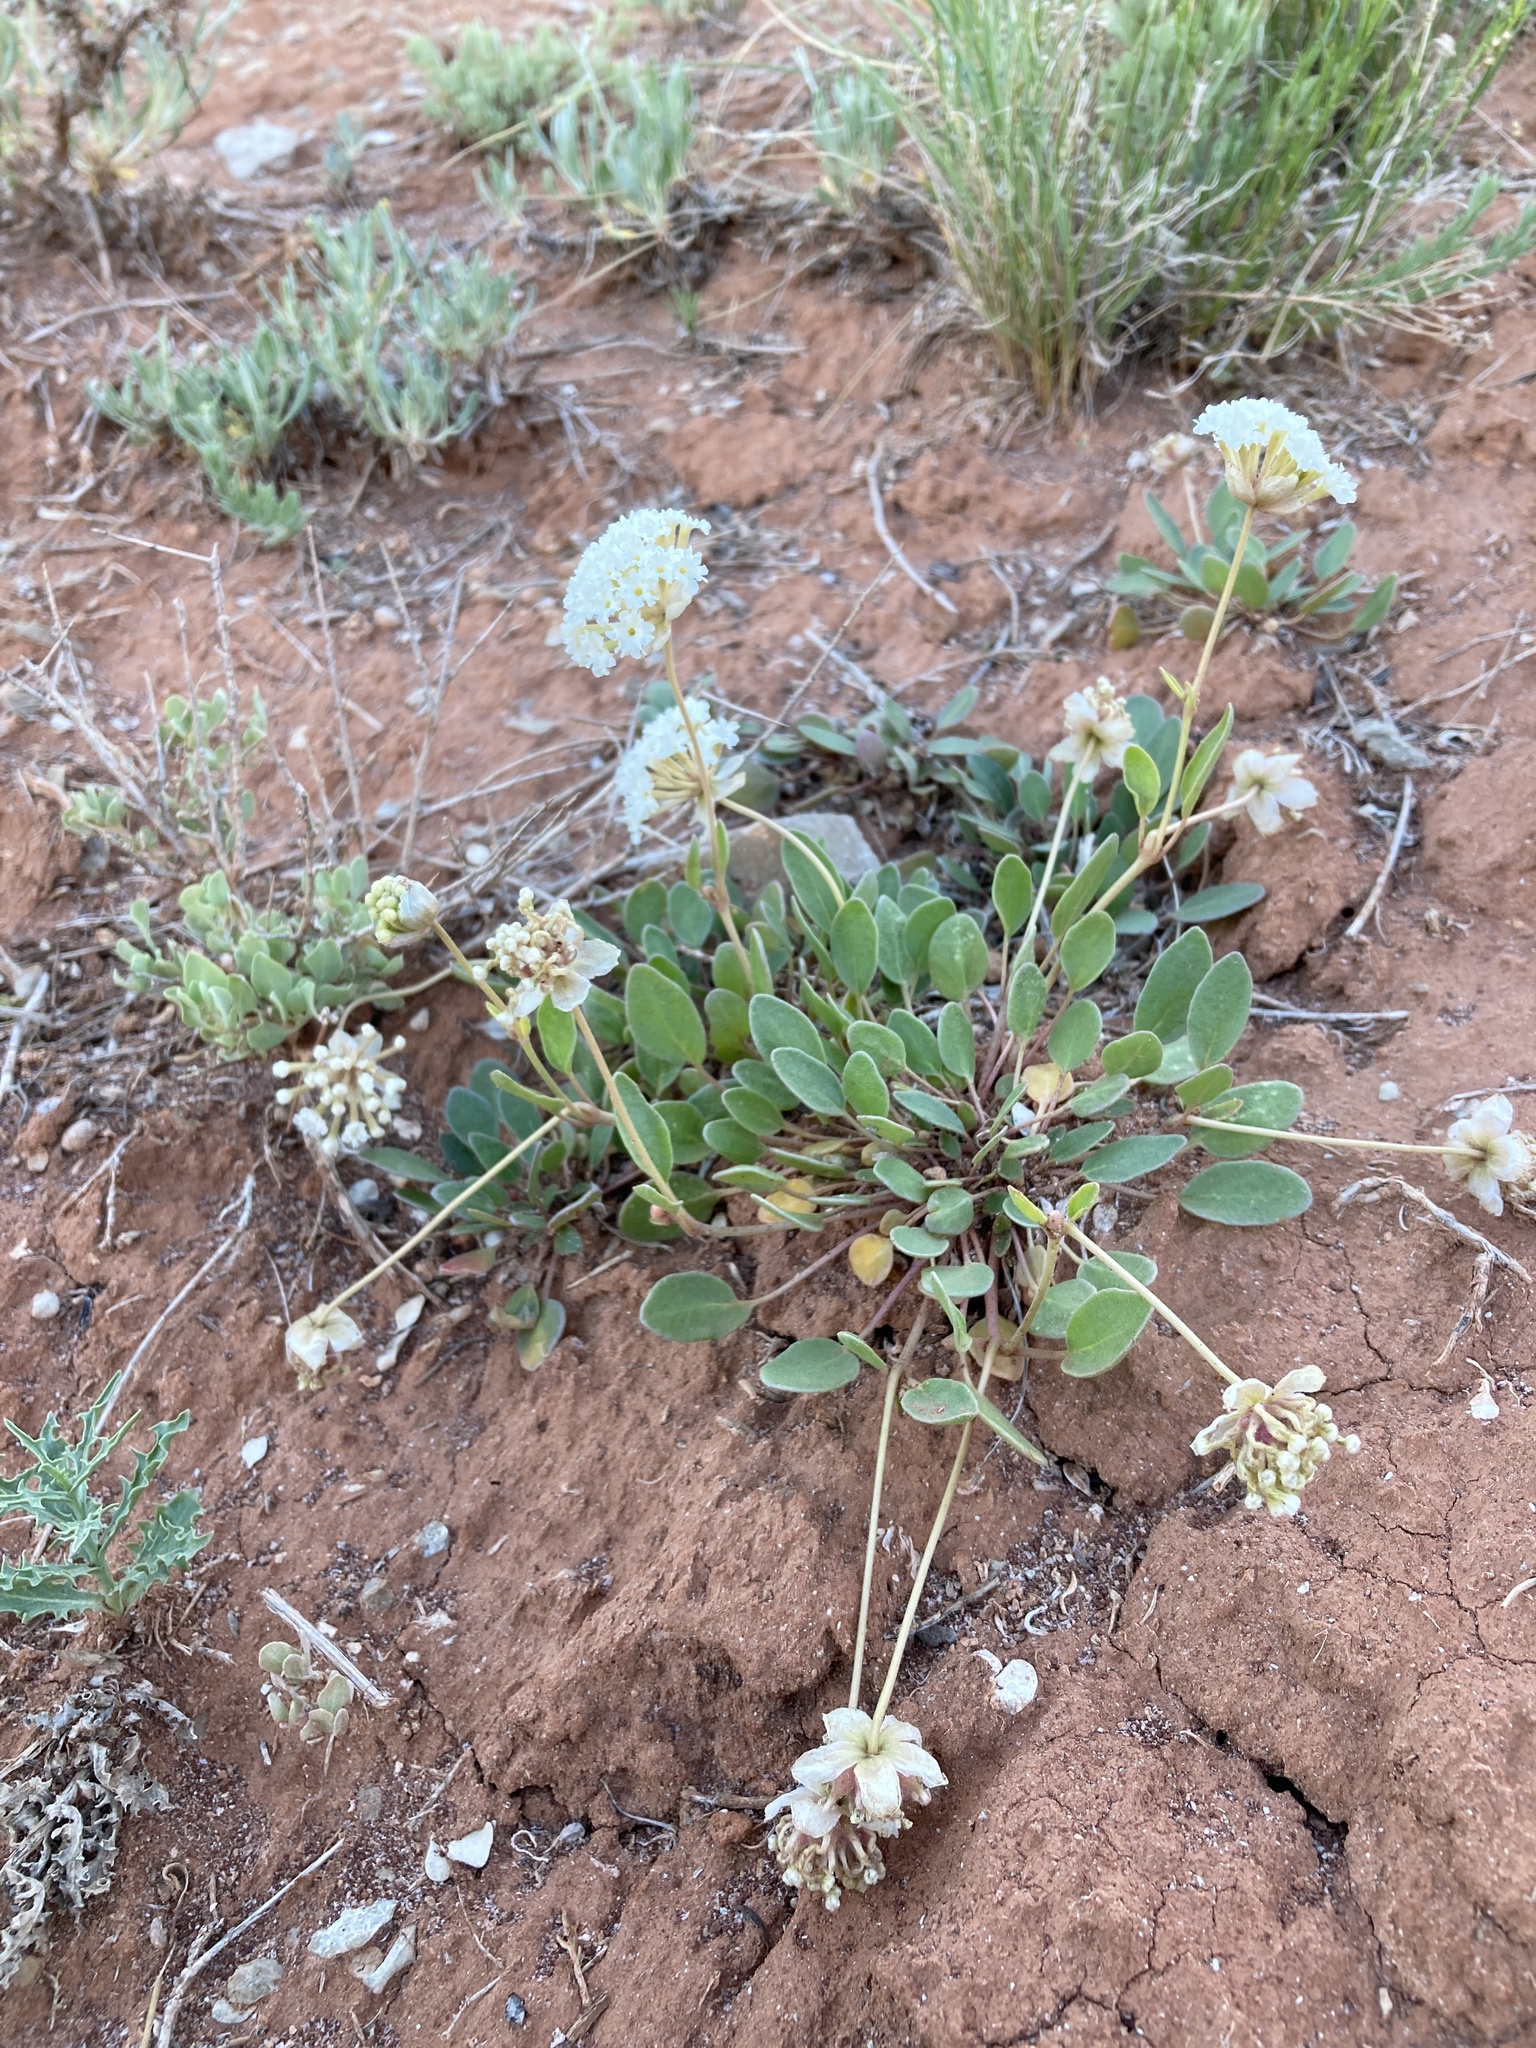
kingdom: Plantae
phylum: Tracheophyta
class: Magnoliopsida
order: Caryophyllales
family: Nyctaginaceae
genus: Abronia
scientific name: Abronia elliptica
